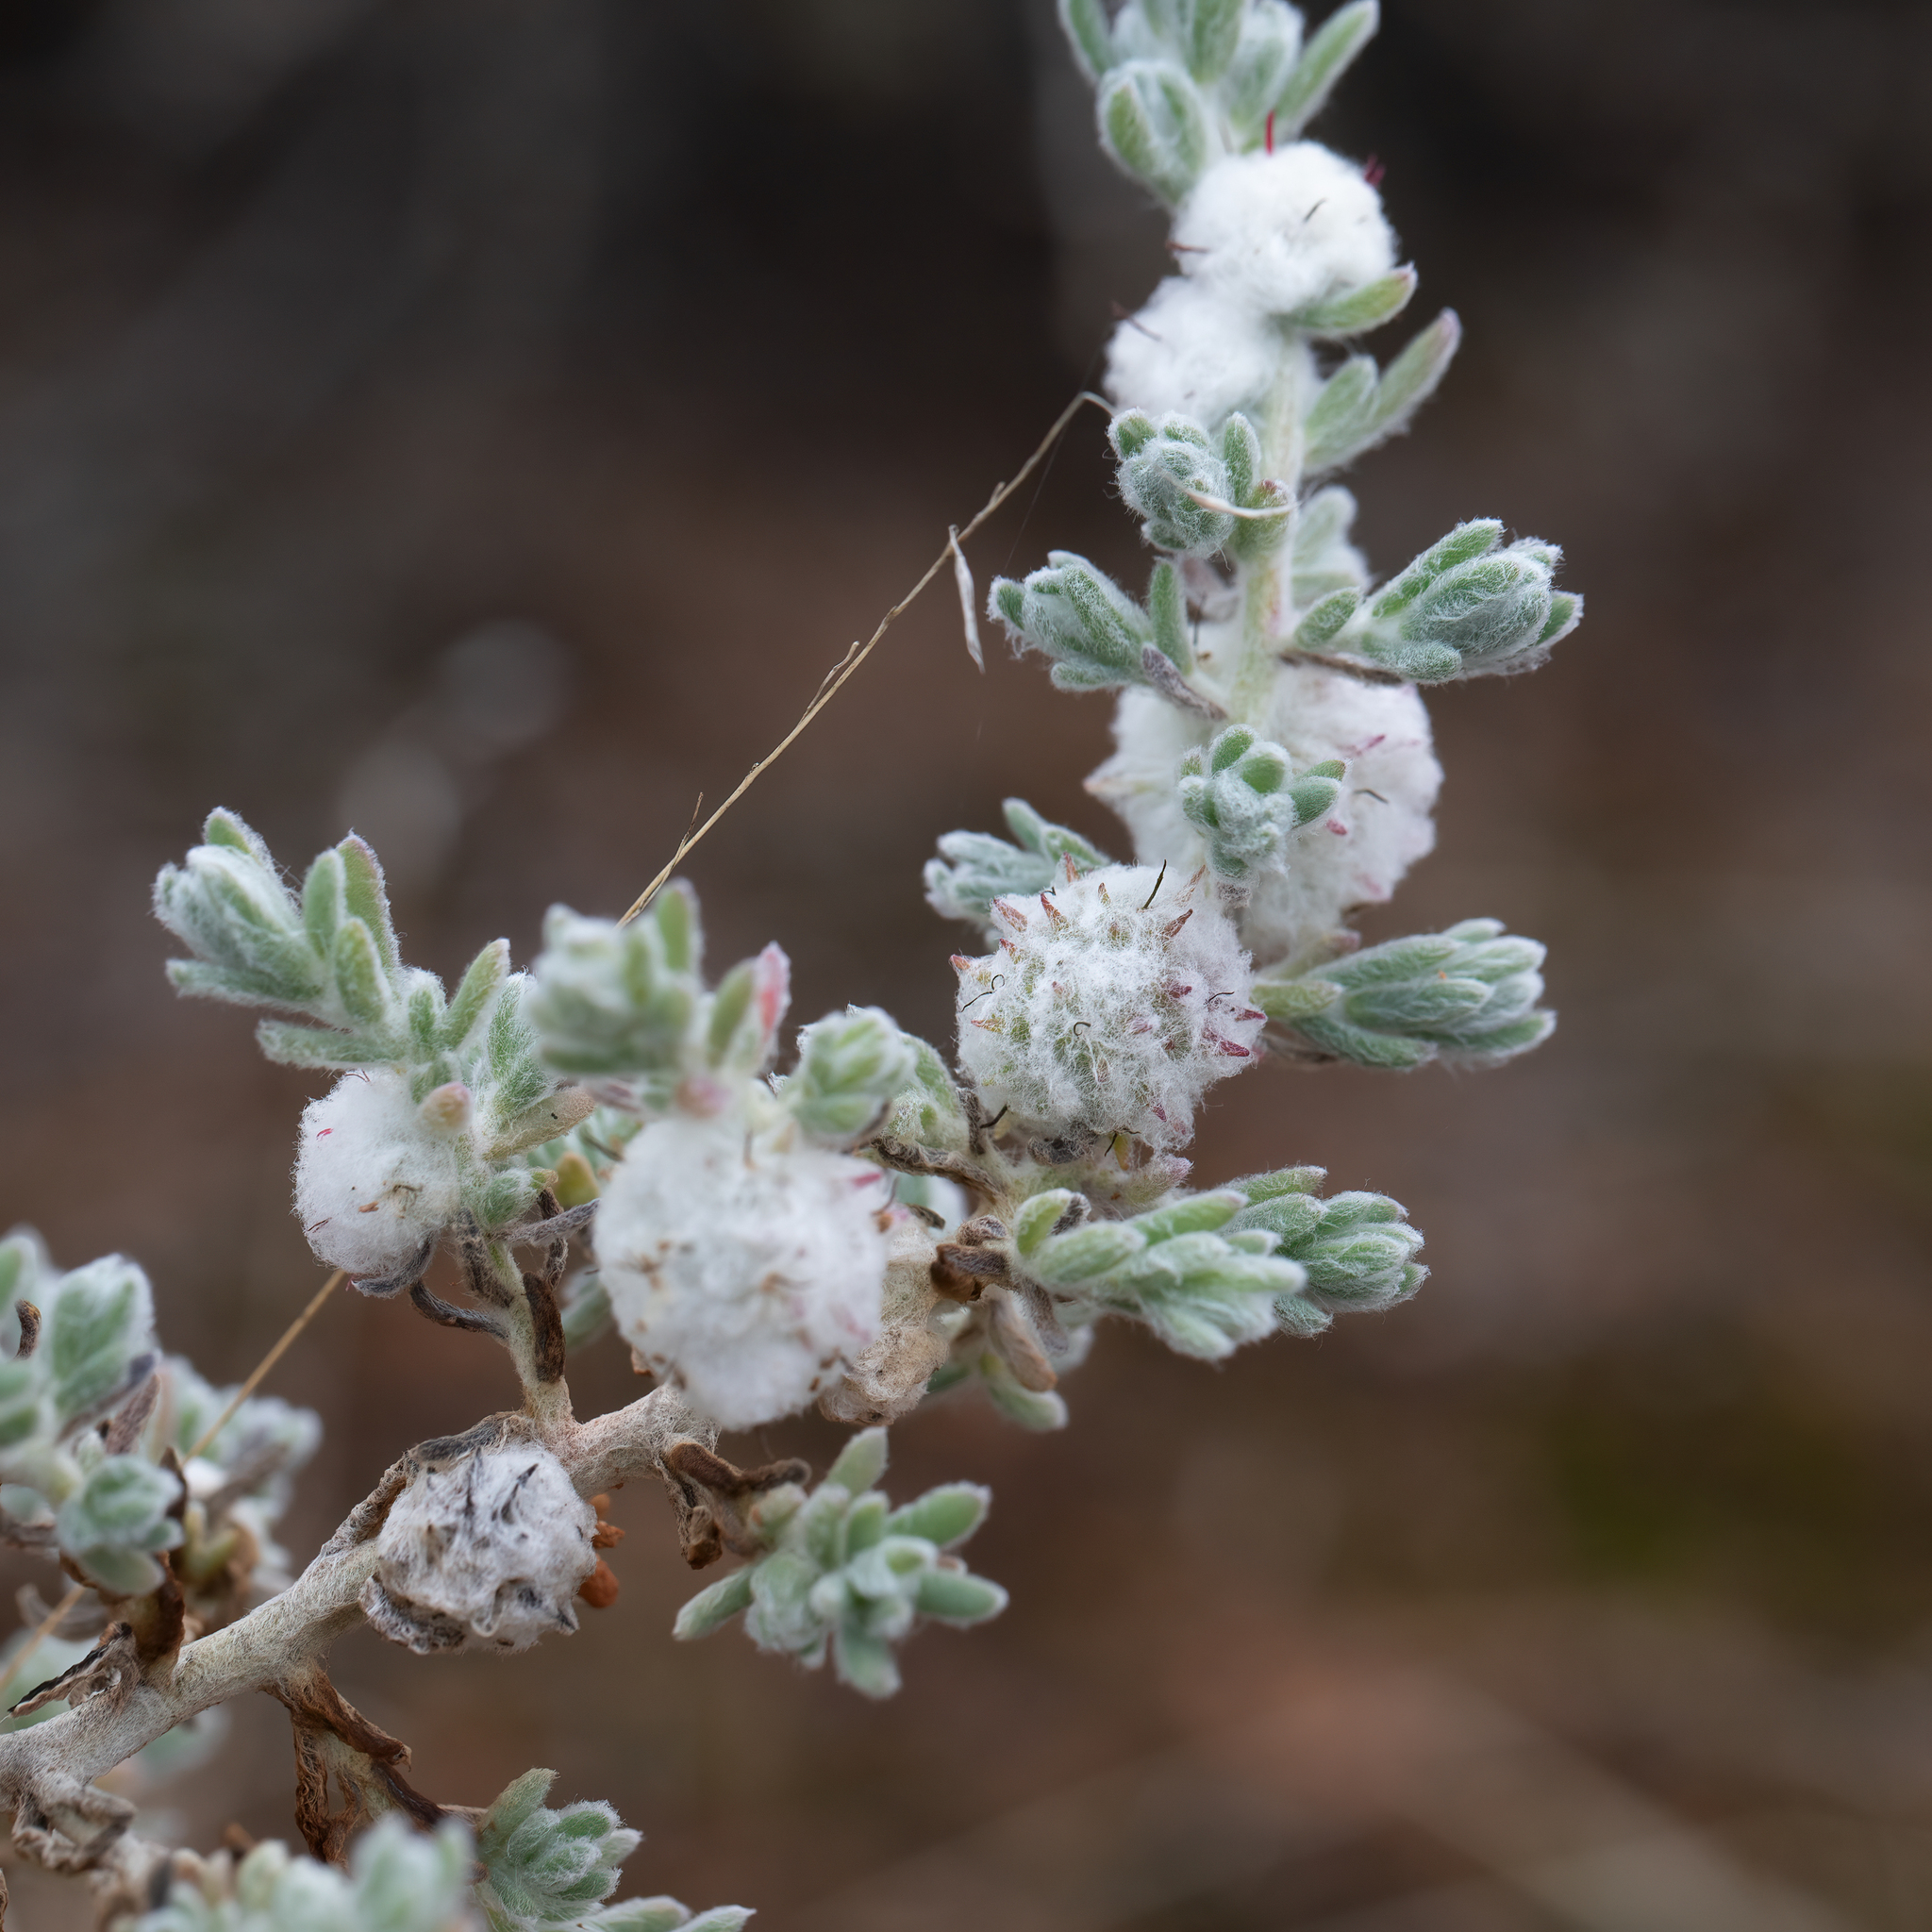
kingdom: Plantae
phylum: Tracheophyta
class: Magnoliopsida
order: Caryophyllales
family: Amaranthaceae
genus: Dissocarpus
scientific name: Dissocarpus paradoxus
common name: Bur-saltbush
